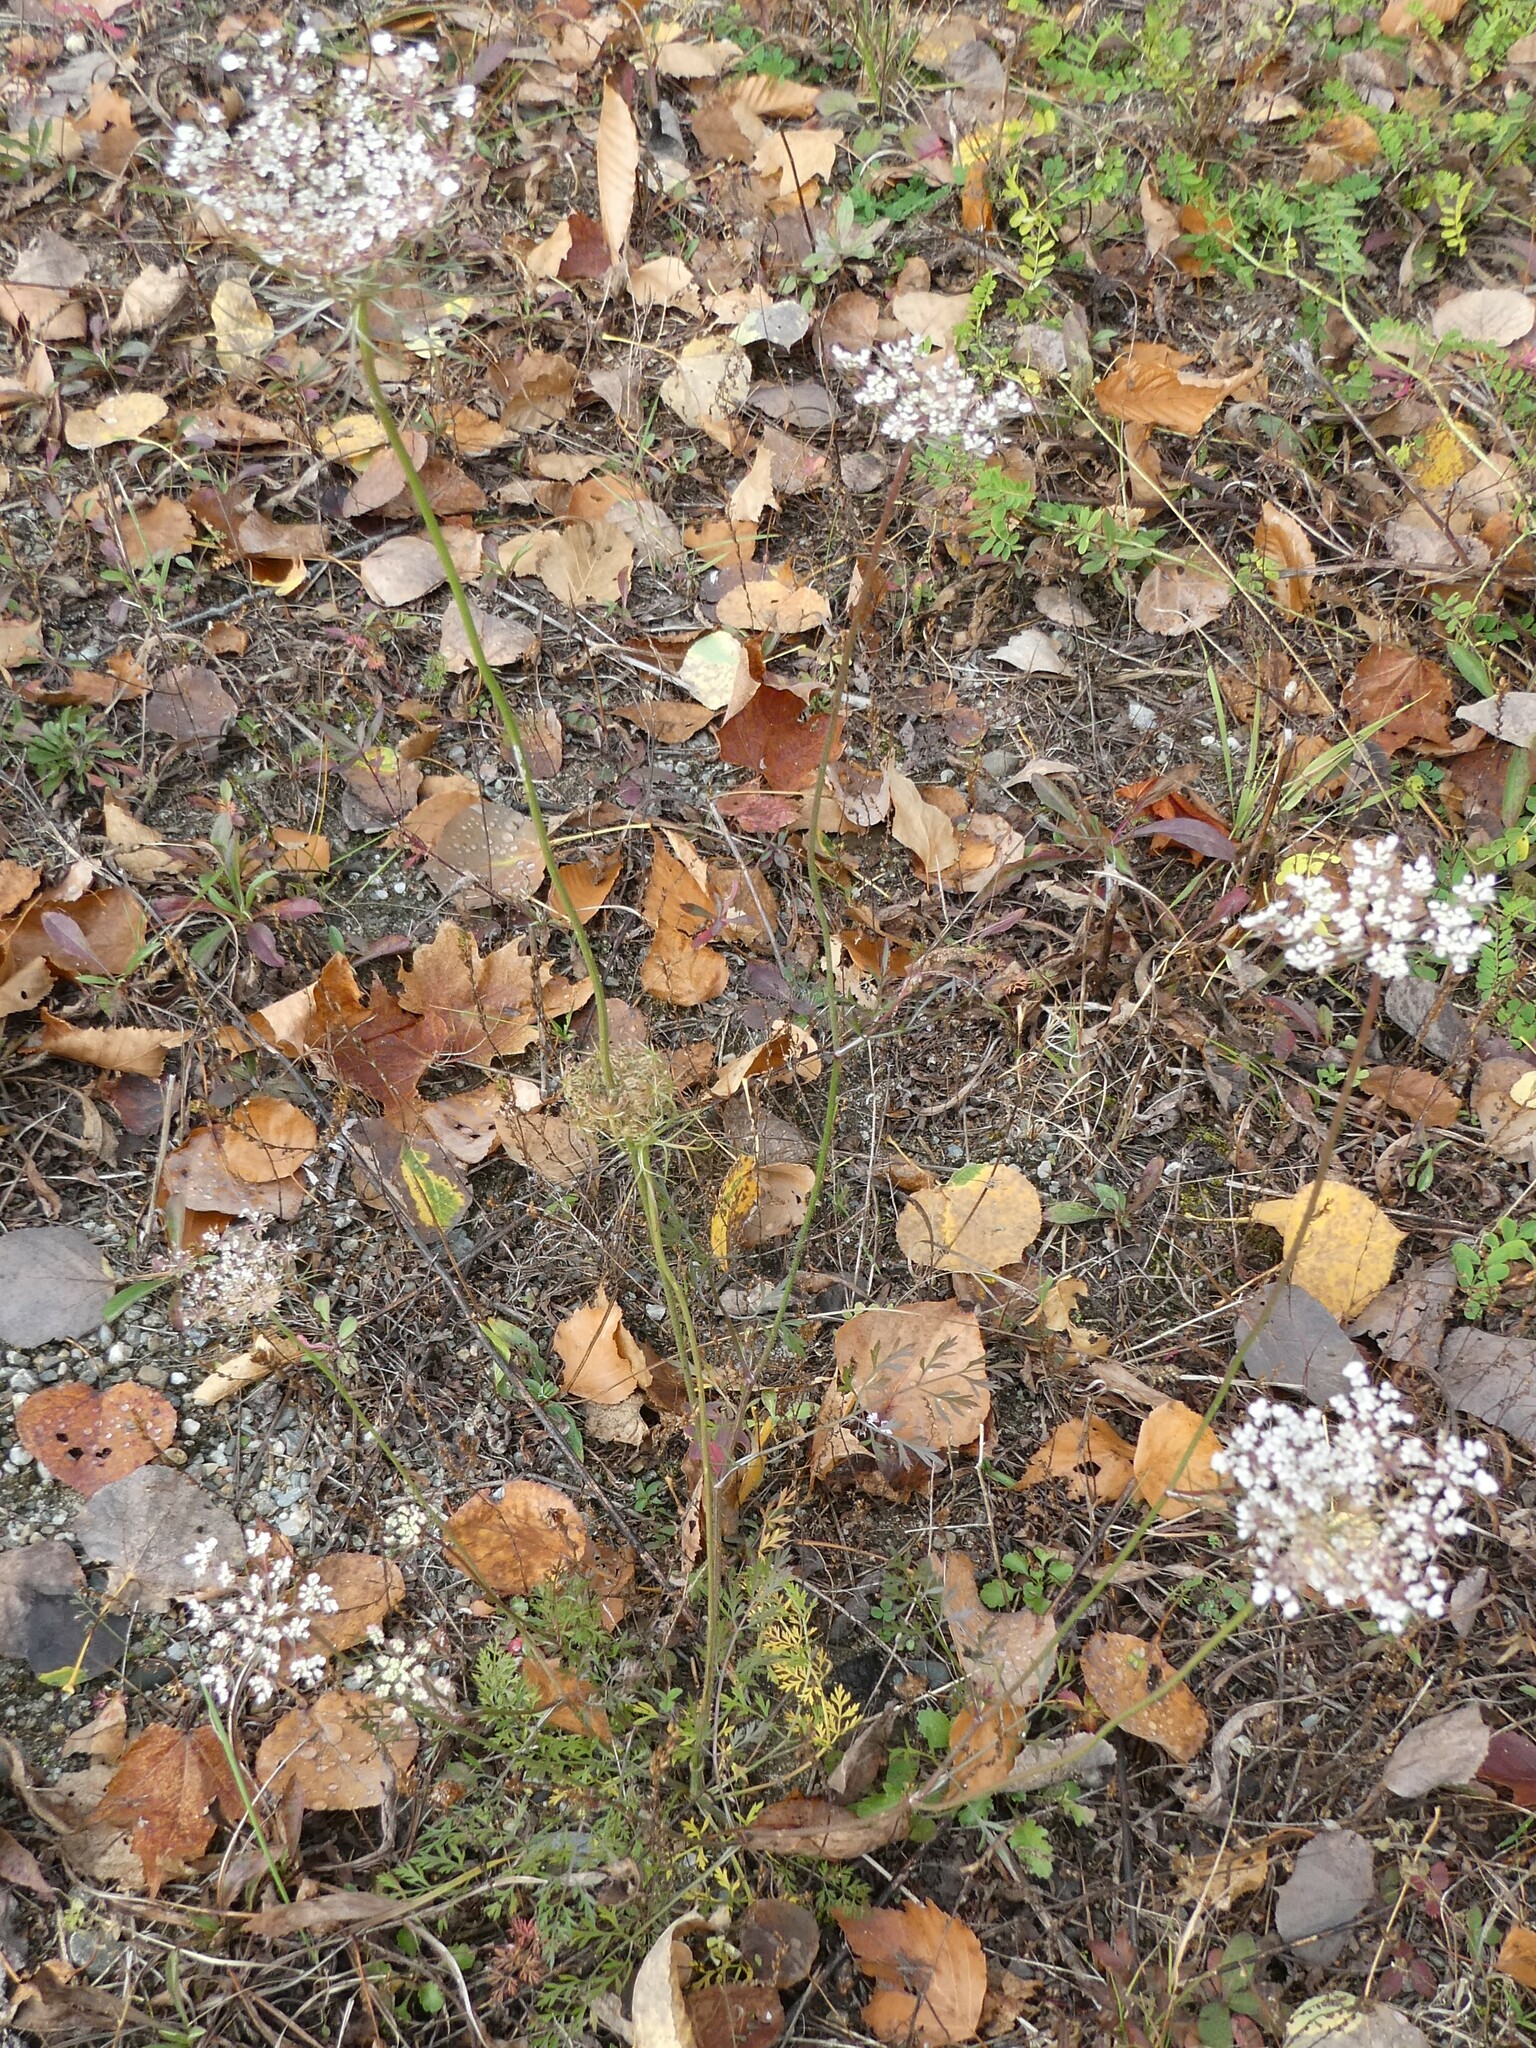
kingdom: Plantae
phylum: Tracheophyta
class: Magnoliopsida
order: Apiales
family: Apiaceae
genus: Daucus
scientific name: Daucus carota
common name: Wild carrot
